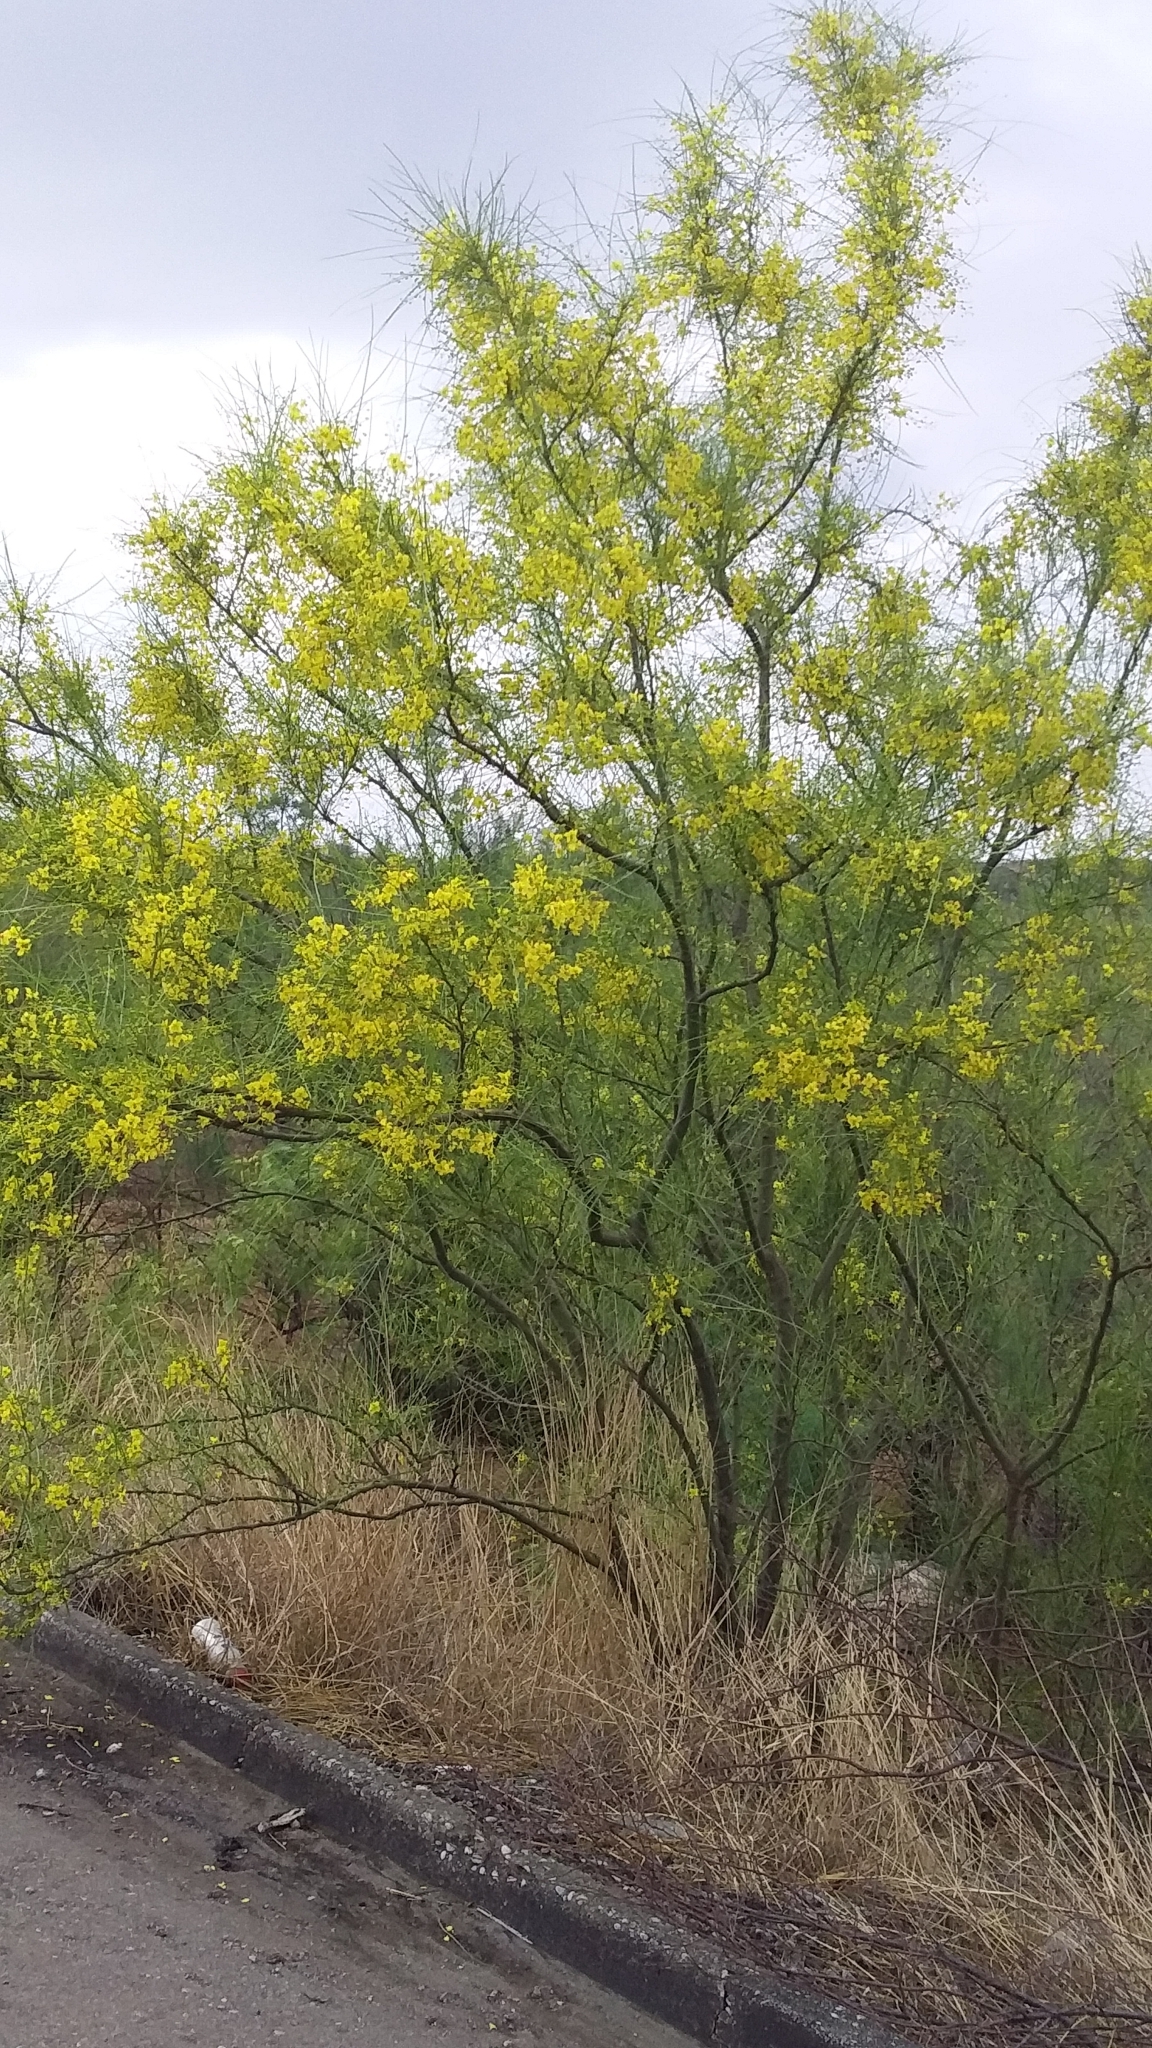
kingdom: Plantae
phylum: Tracheophyta
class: Magnoliopsida
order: Fabales
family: Fabaceae
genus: Parkinsonia
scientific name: Parkinsonia aculeata
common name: Jerusalem thorn
